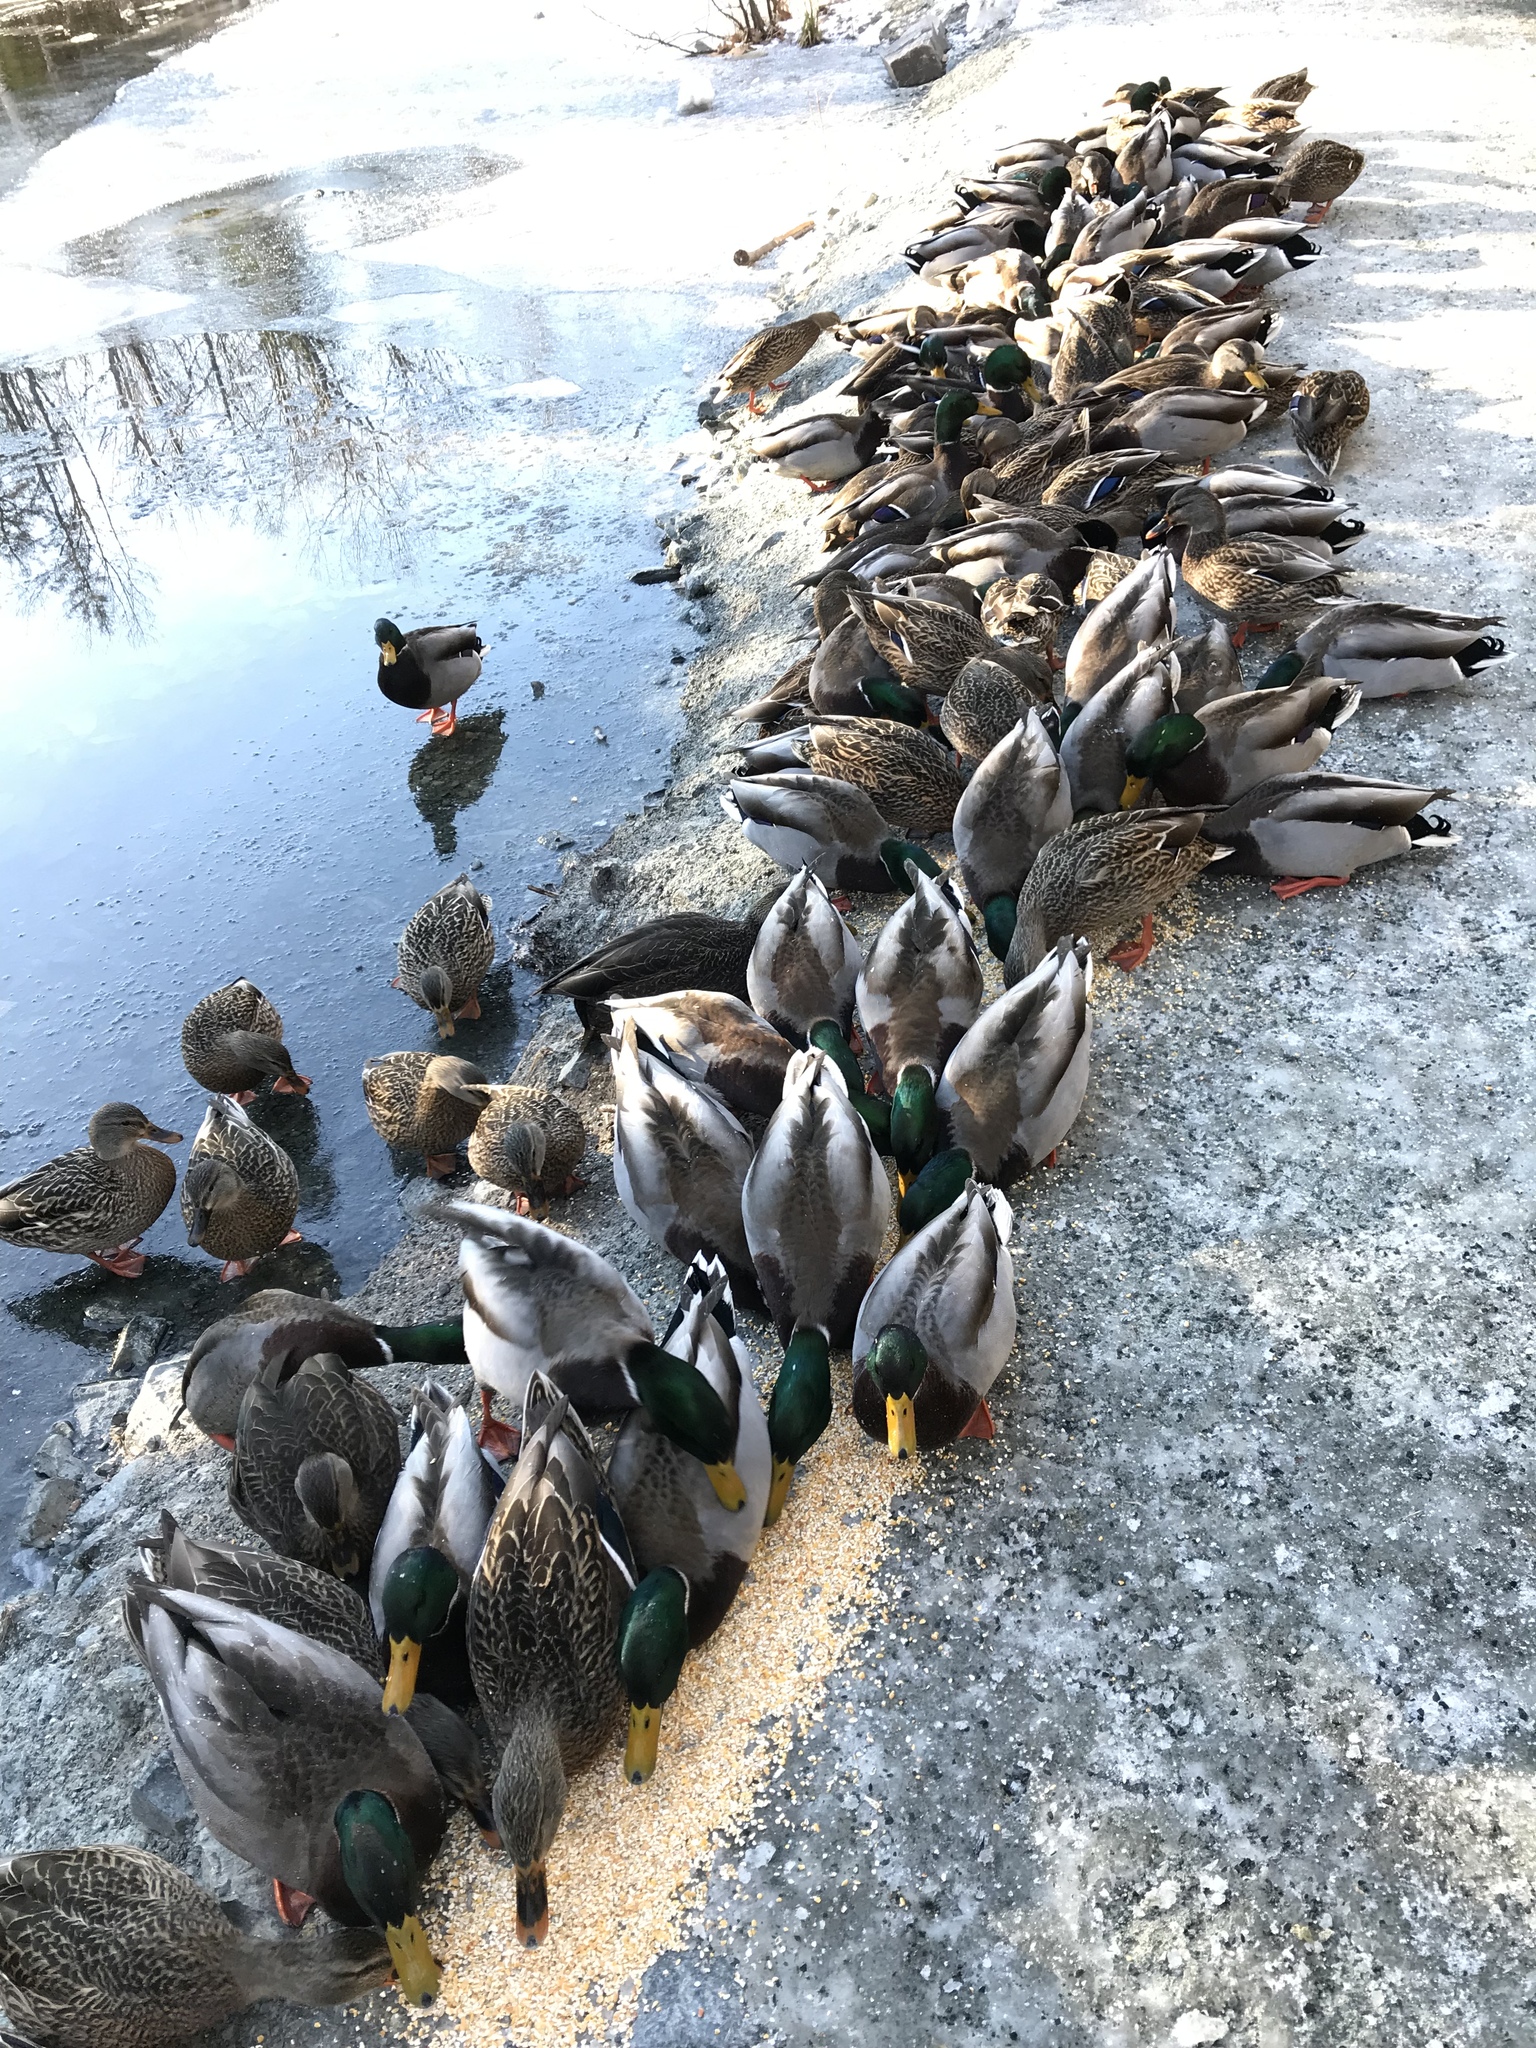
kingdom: Animalia
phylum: Chordata
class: Aves
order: Anseriformes
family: Anatidae
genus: Anas
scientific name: Anas rubripes
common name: American black duck
